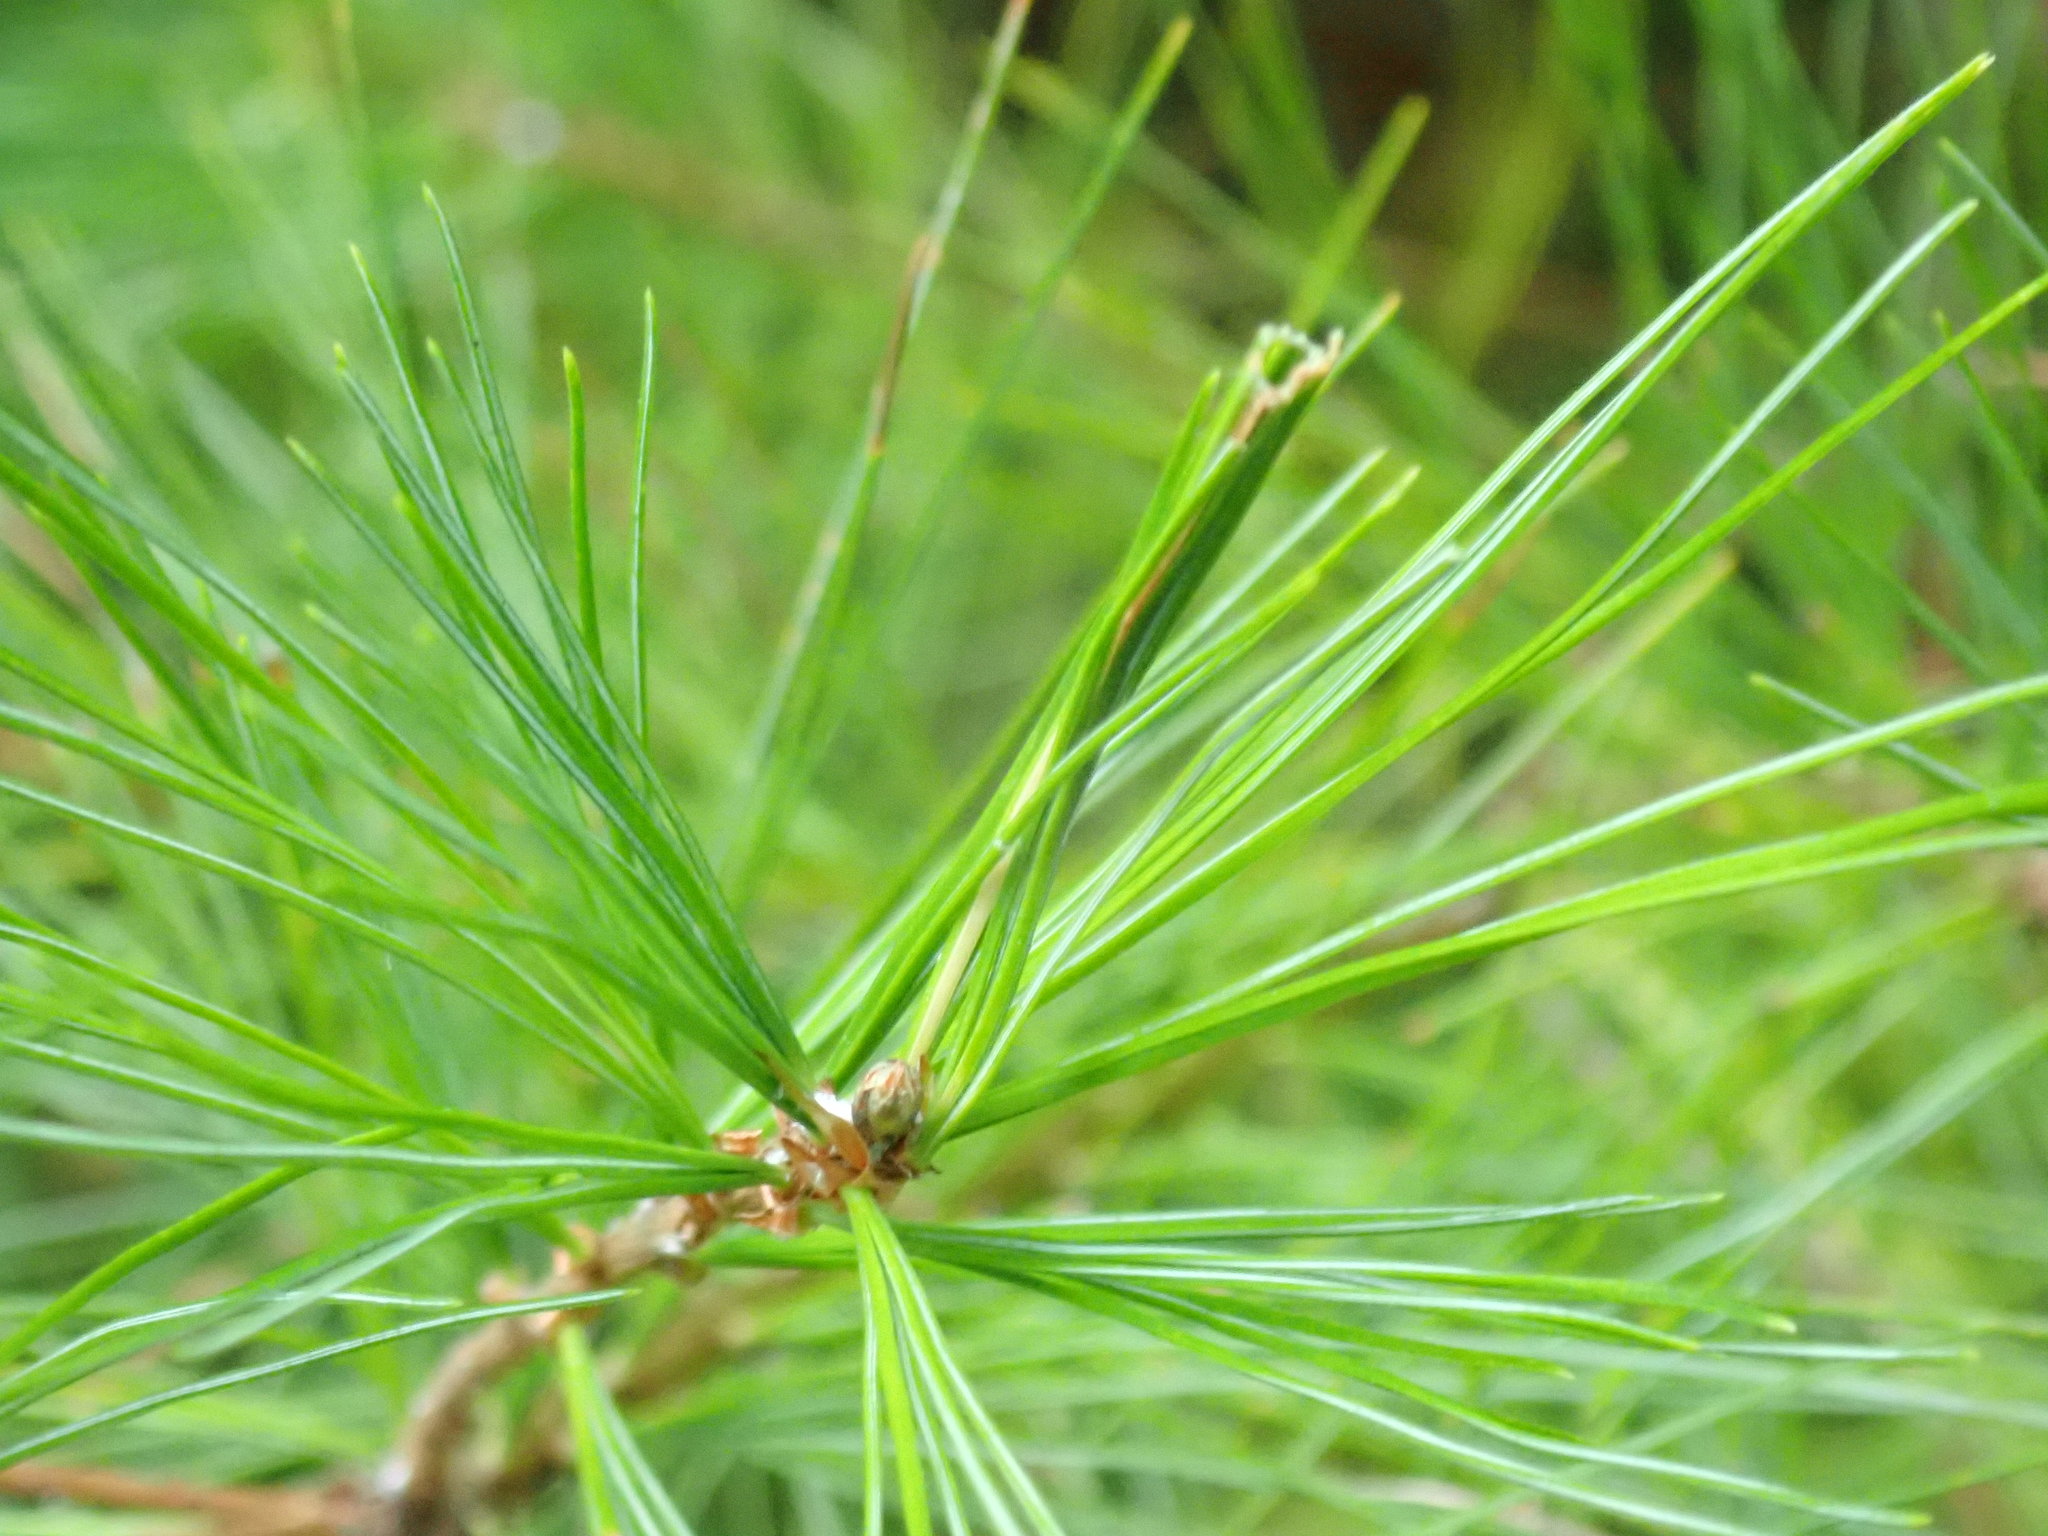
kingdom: Animalia
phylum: Arthropoda
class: Insecta
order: Lepidoptera
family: Tortricidae
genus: Argyrotaenia
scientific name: Argyrotaenia pinatubana
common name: Pine tube moth
